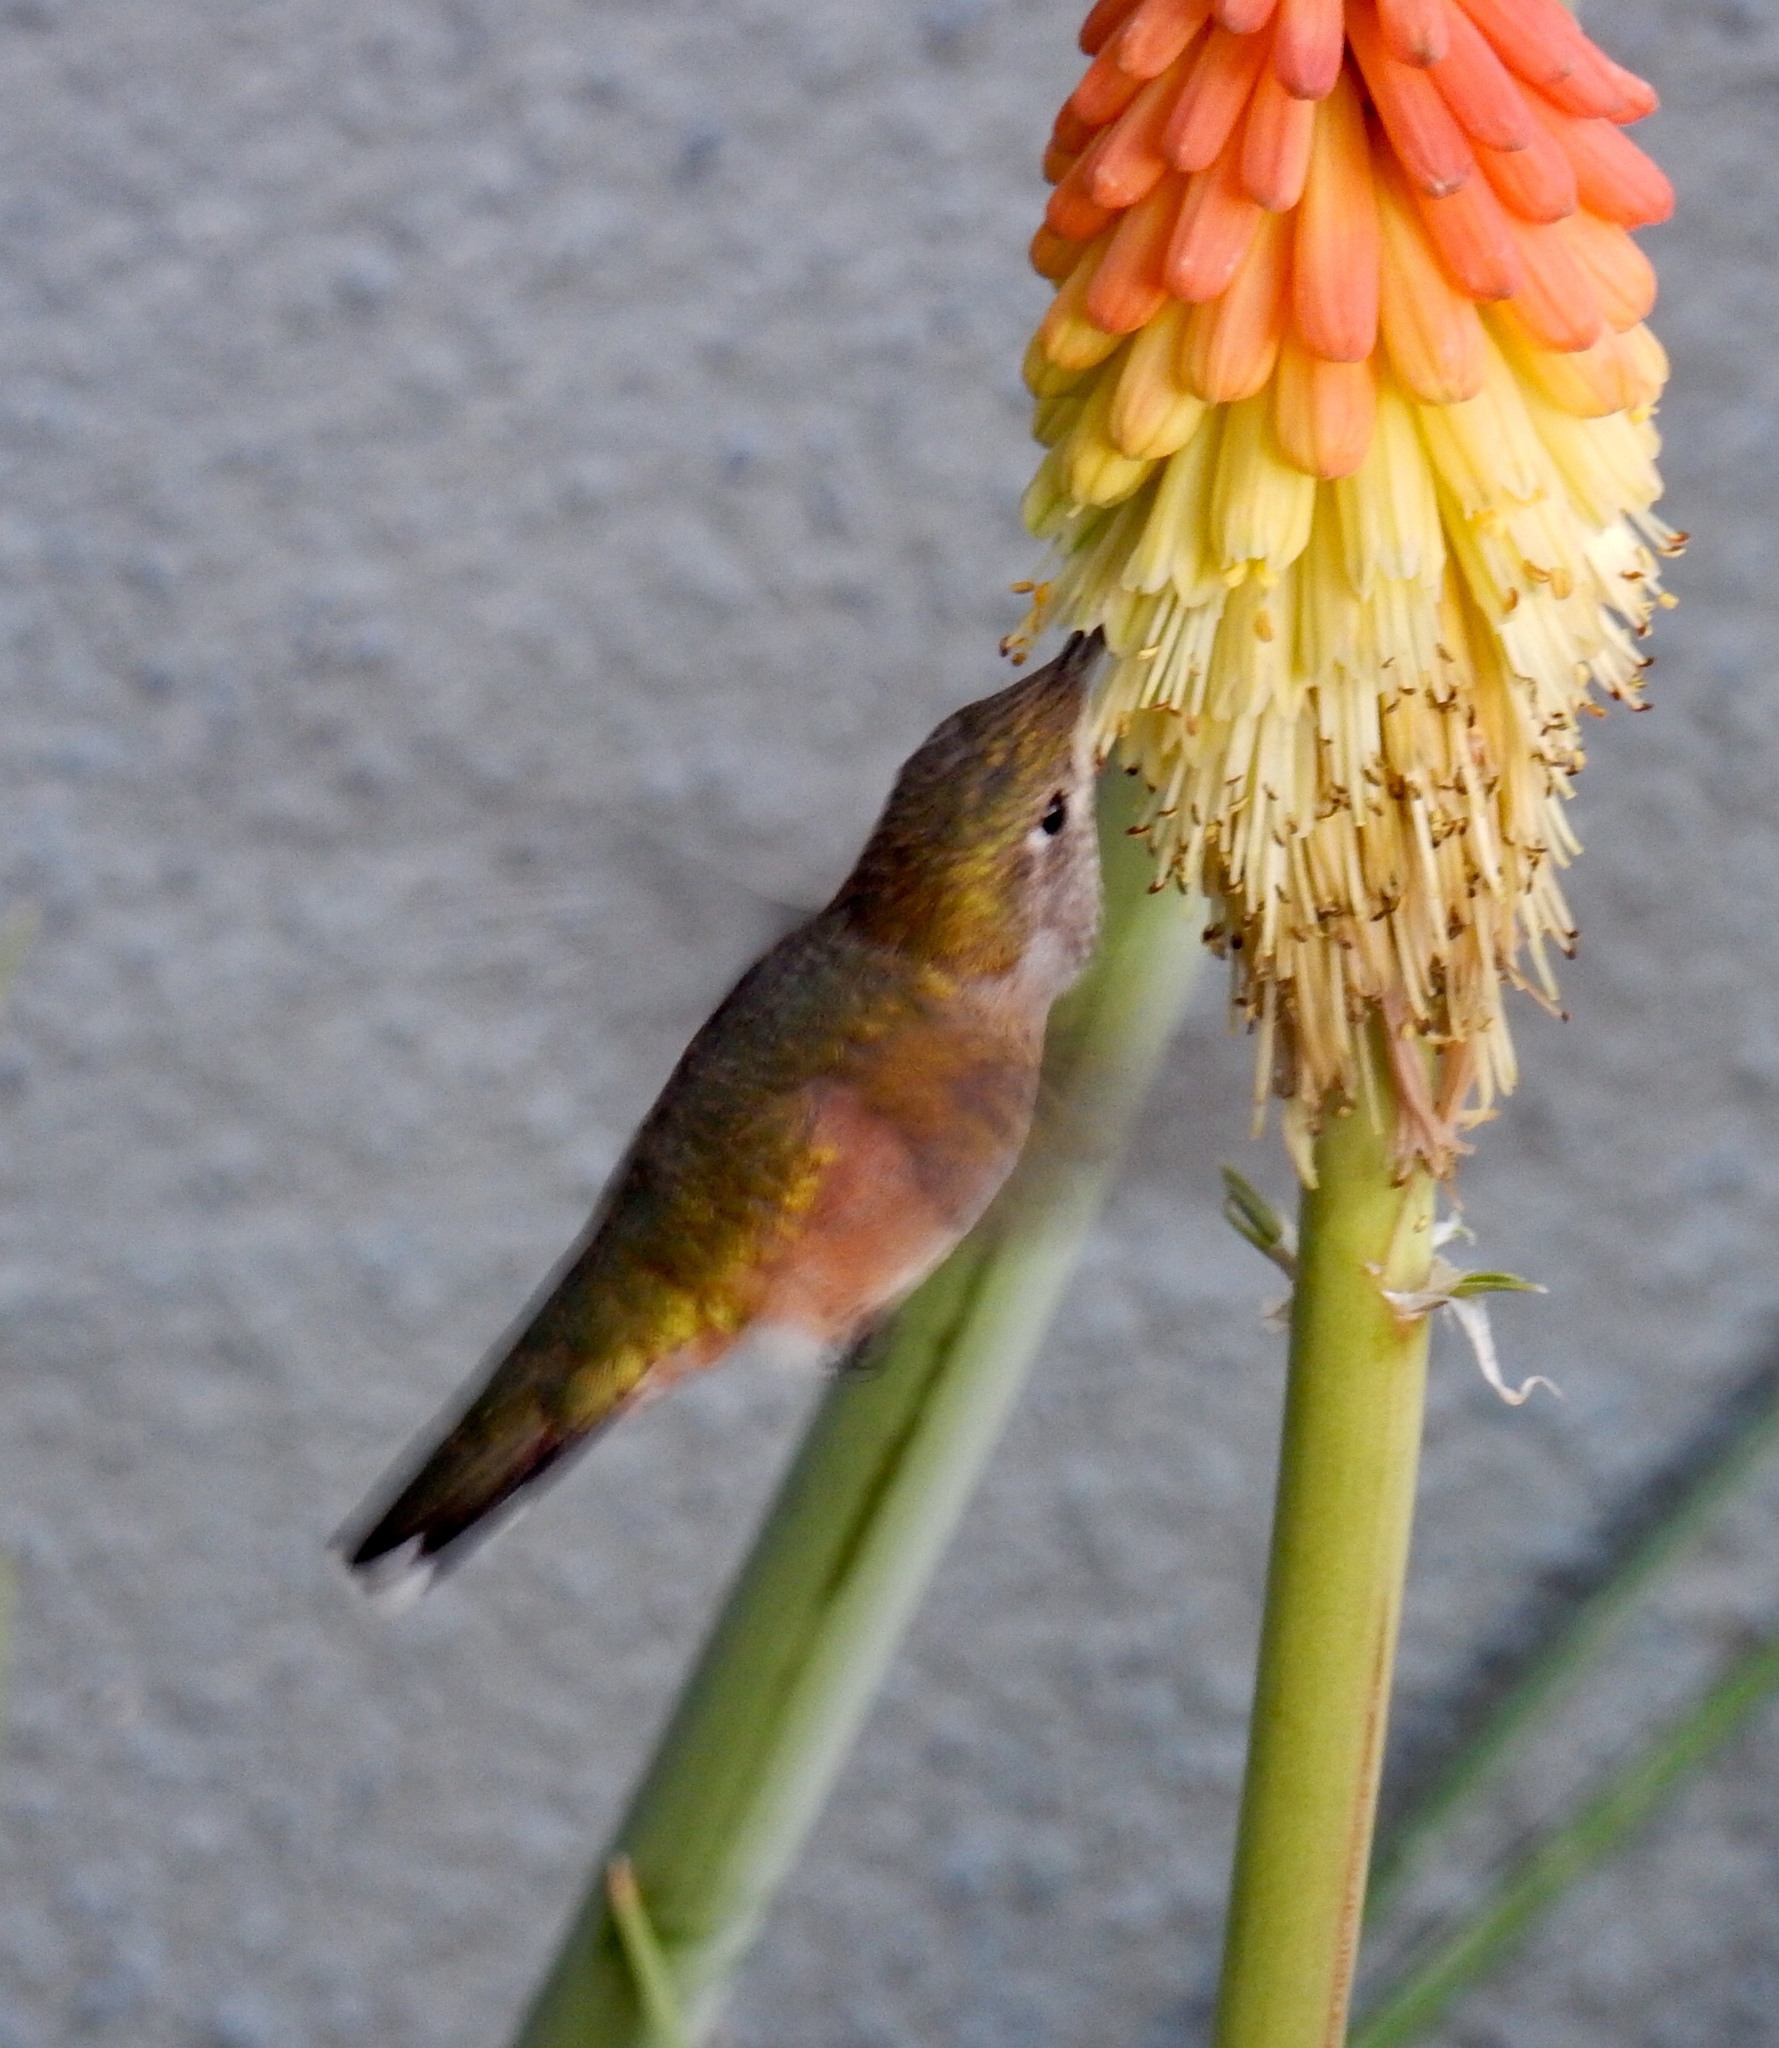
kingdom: Animalia
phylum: Chordata
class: Aves
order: Apodiformes
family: Trochilidae
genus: Selasphorus
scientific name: Selasphorus platycercus
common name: Broad-tailed hummingbird
